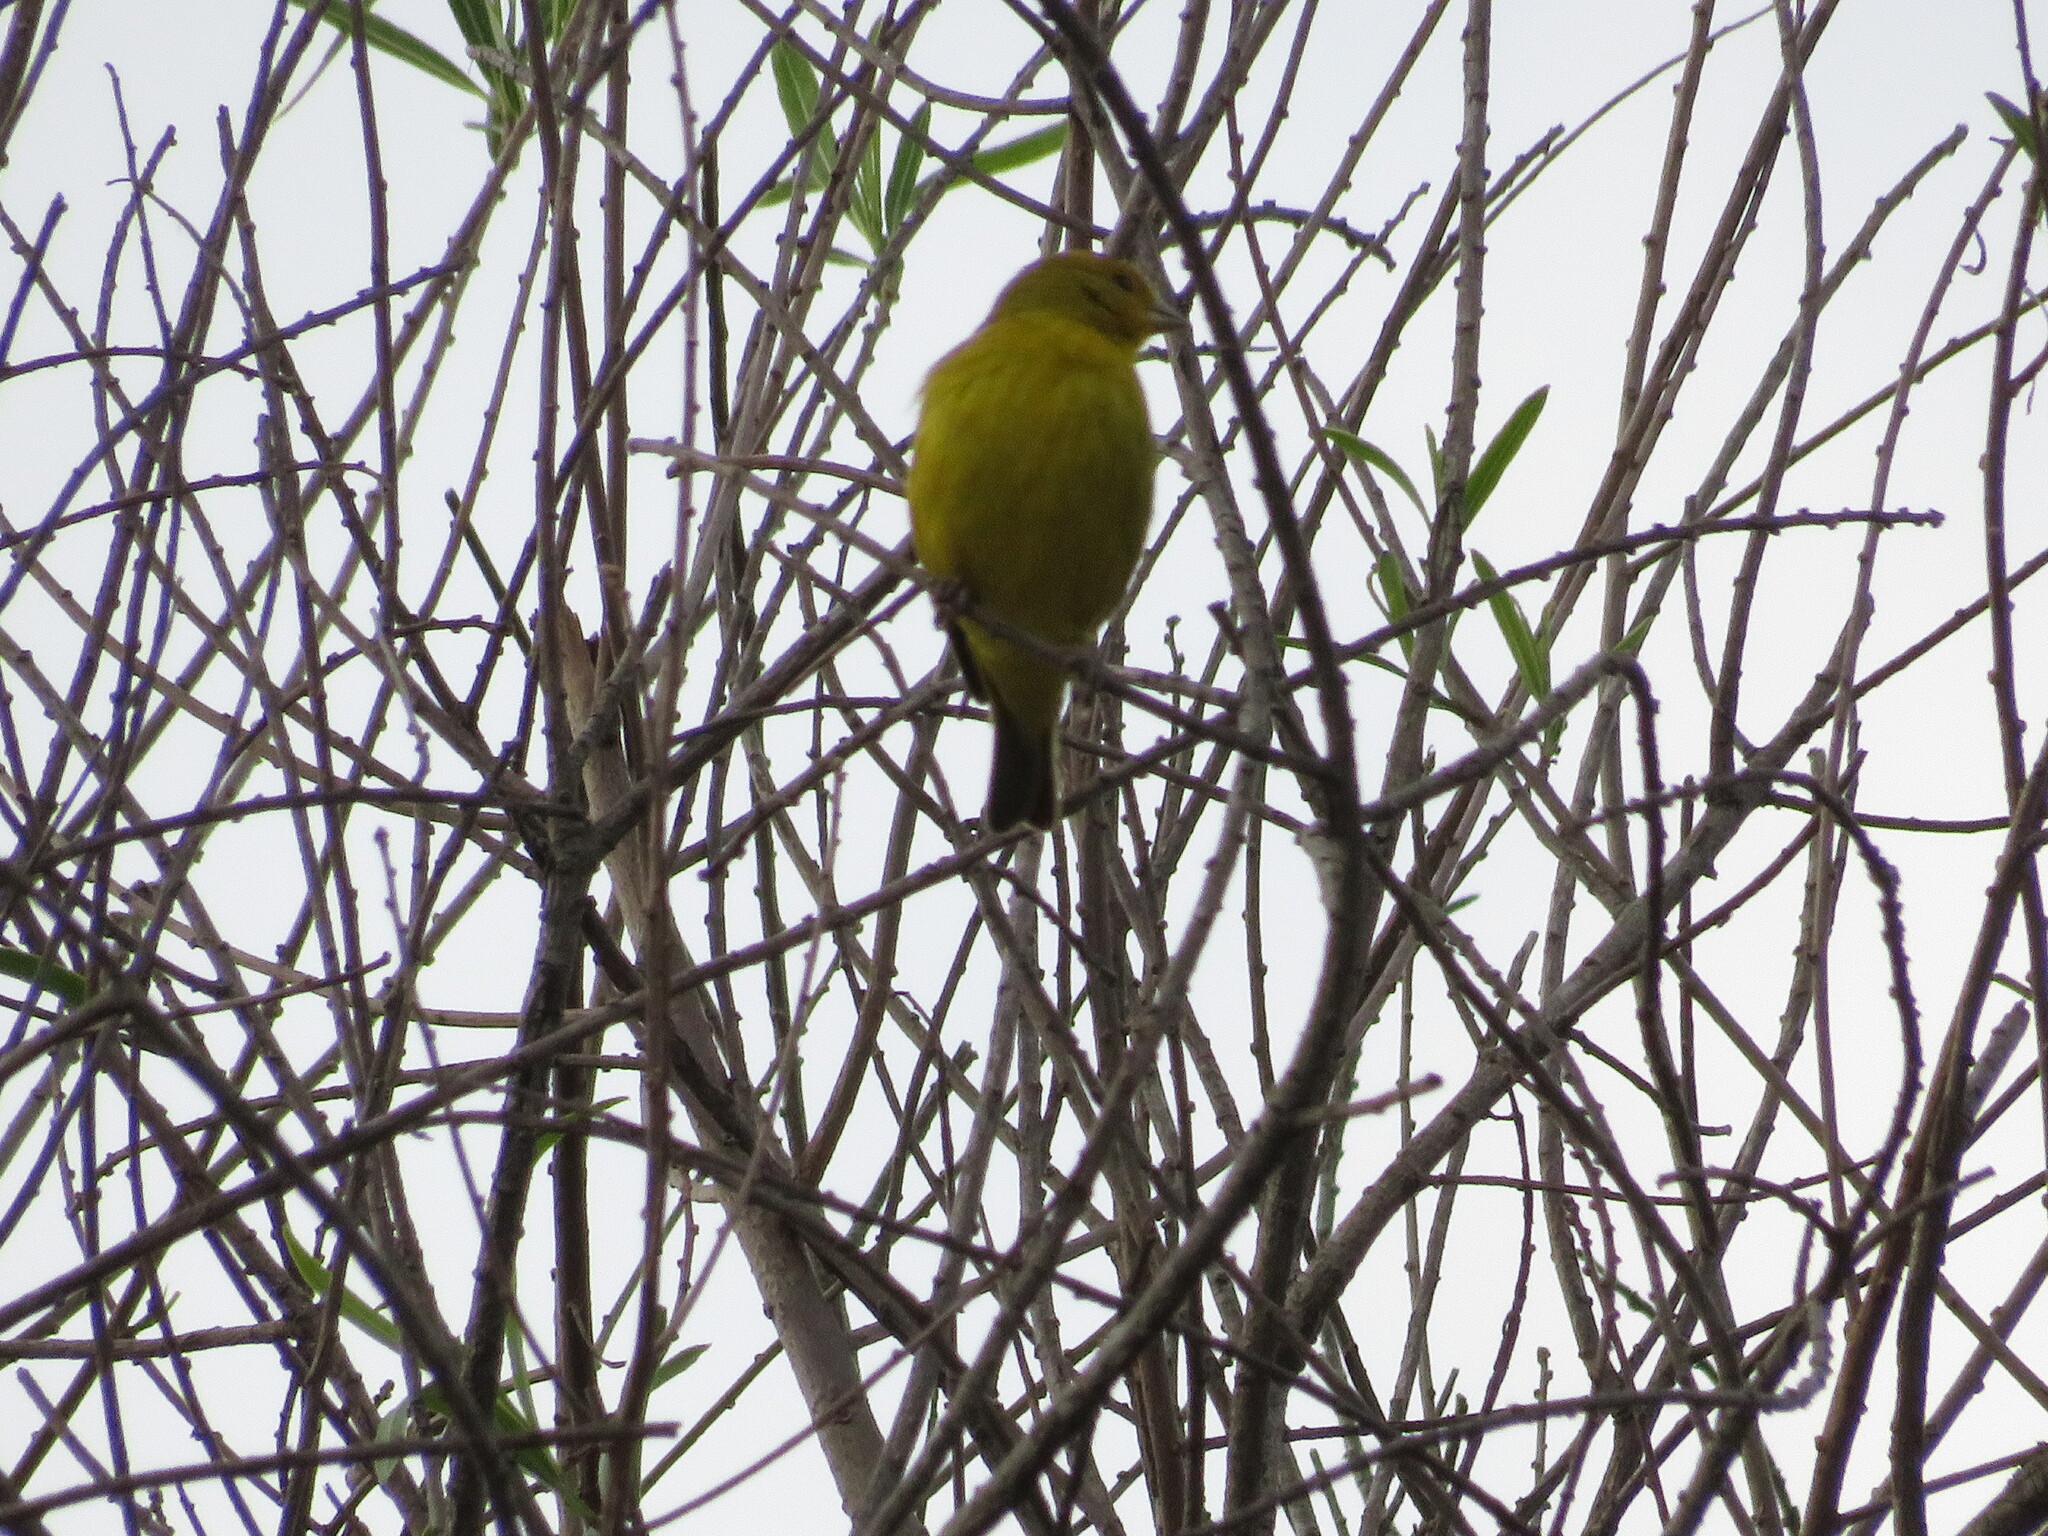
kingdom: Animalia
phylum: Chordata
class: Aves
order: Passeriformes
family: Thraupidae
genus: Sicalis
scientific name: Sicalis flaveola
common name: Saffron finch
